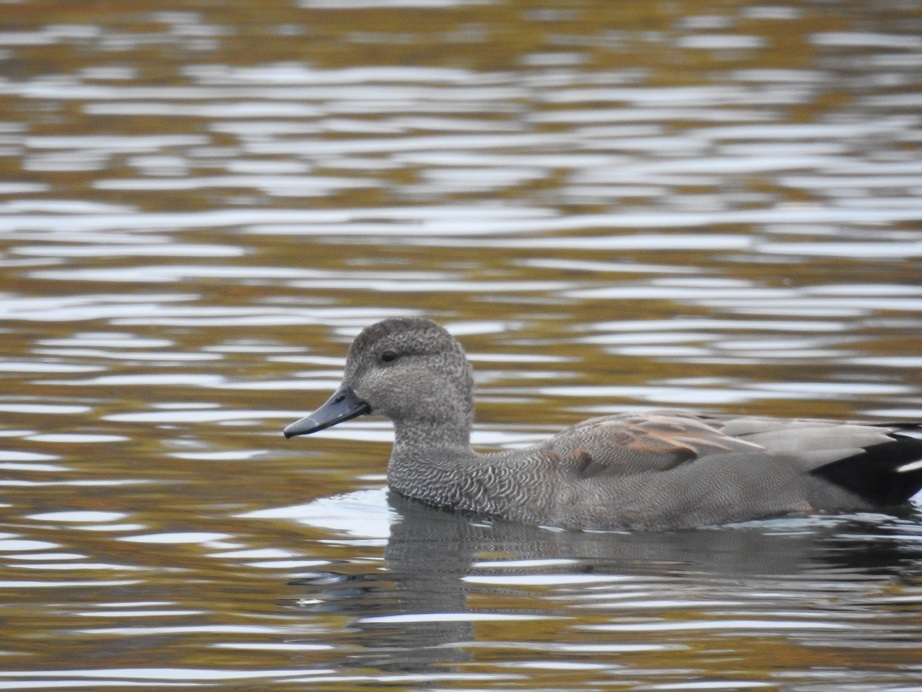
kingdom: Animalia
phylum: Chordata
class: Aves
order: Anseriformes
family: Anatidae
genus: Mareca
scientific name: Mareca strepera
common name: Gadwall
